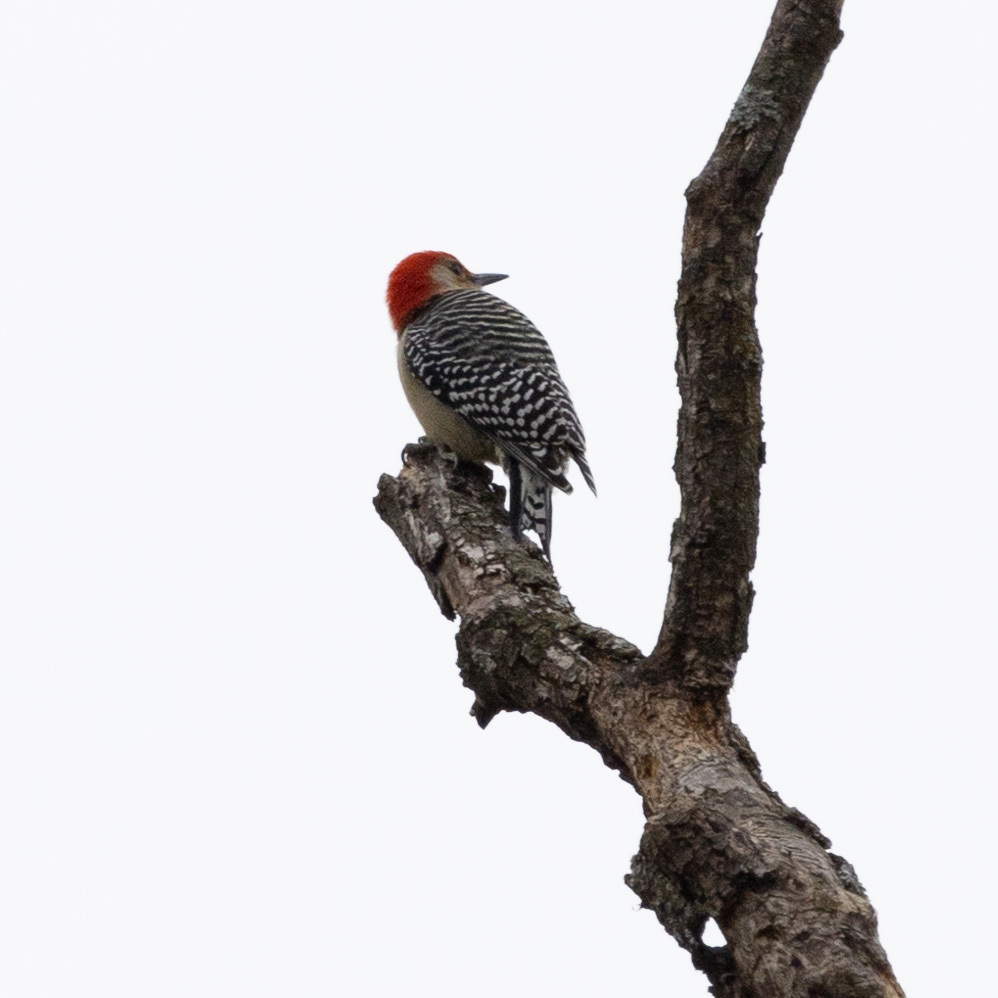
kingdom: Animalia
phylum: Chordata
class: Aves
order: Piciformes
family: Picidae
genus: Melanerpes
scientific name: Melanerpes carolinus
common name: Red-bellied woodpecker
